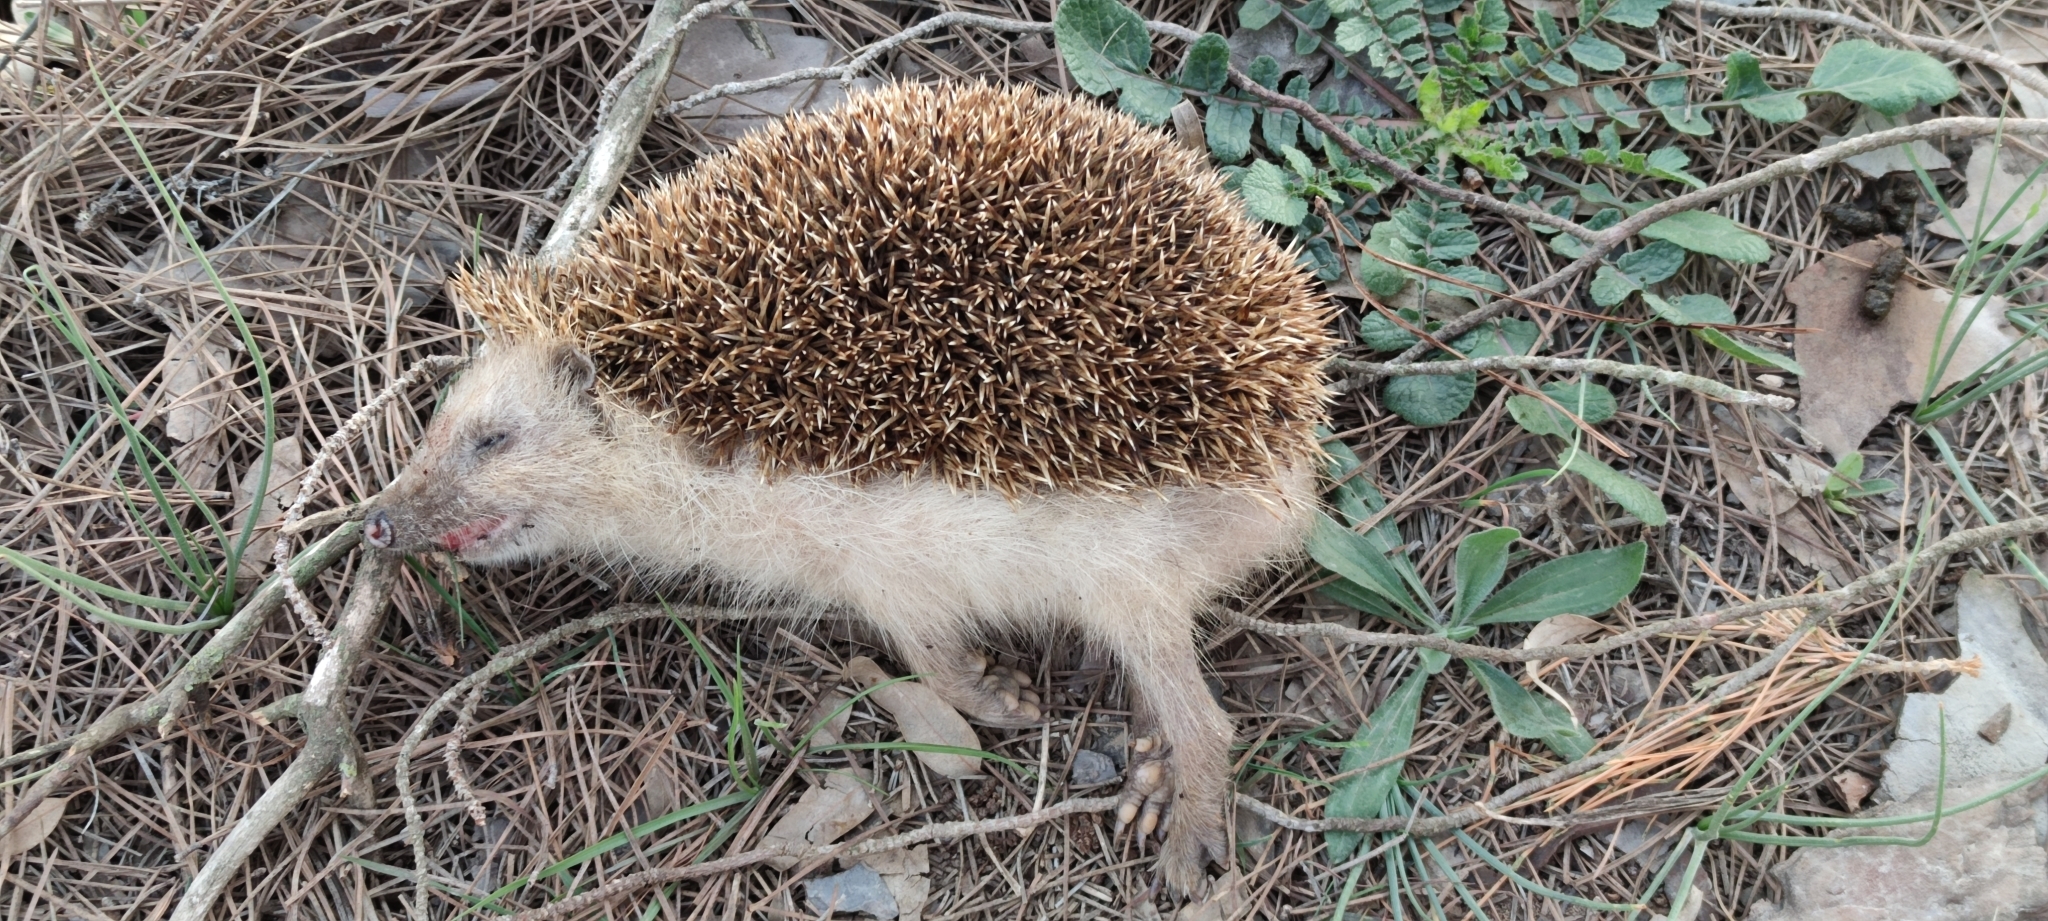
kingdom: Animalia
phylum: Chordata
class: Mammalia
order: Erinaceomorpha
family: Erinaceidae
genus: Erinaceus
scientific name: Erinaceus europaeus
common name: West european hedgehog
